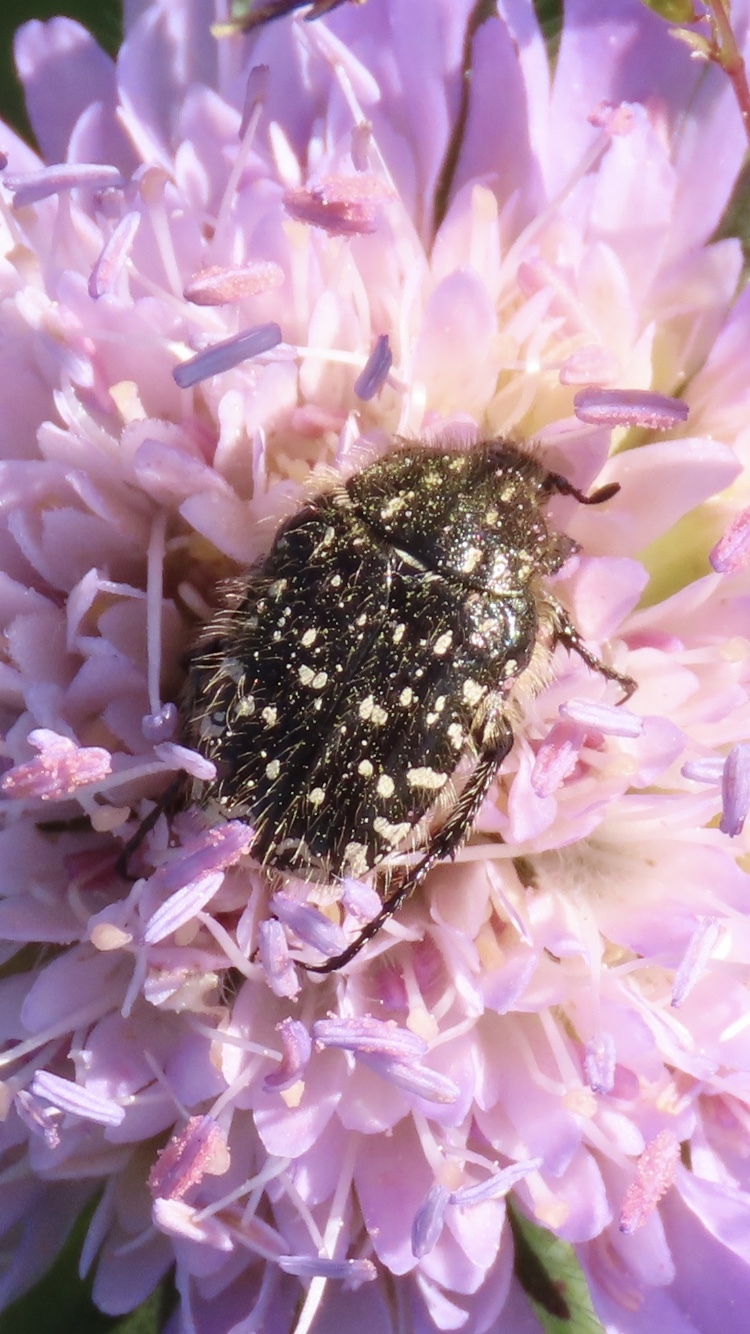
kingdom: Animalia
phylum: Arthropoda
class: Insecta
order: Coleoptera
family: Scarabaeidae
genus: Oxythyrea
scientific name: Oxythyrea funesta
